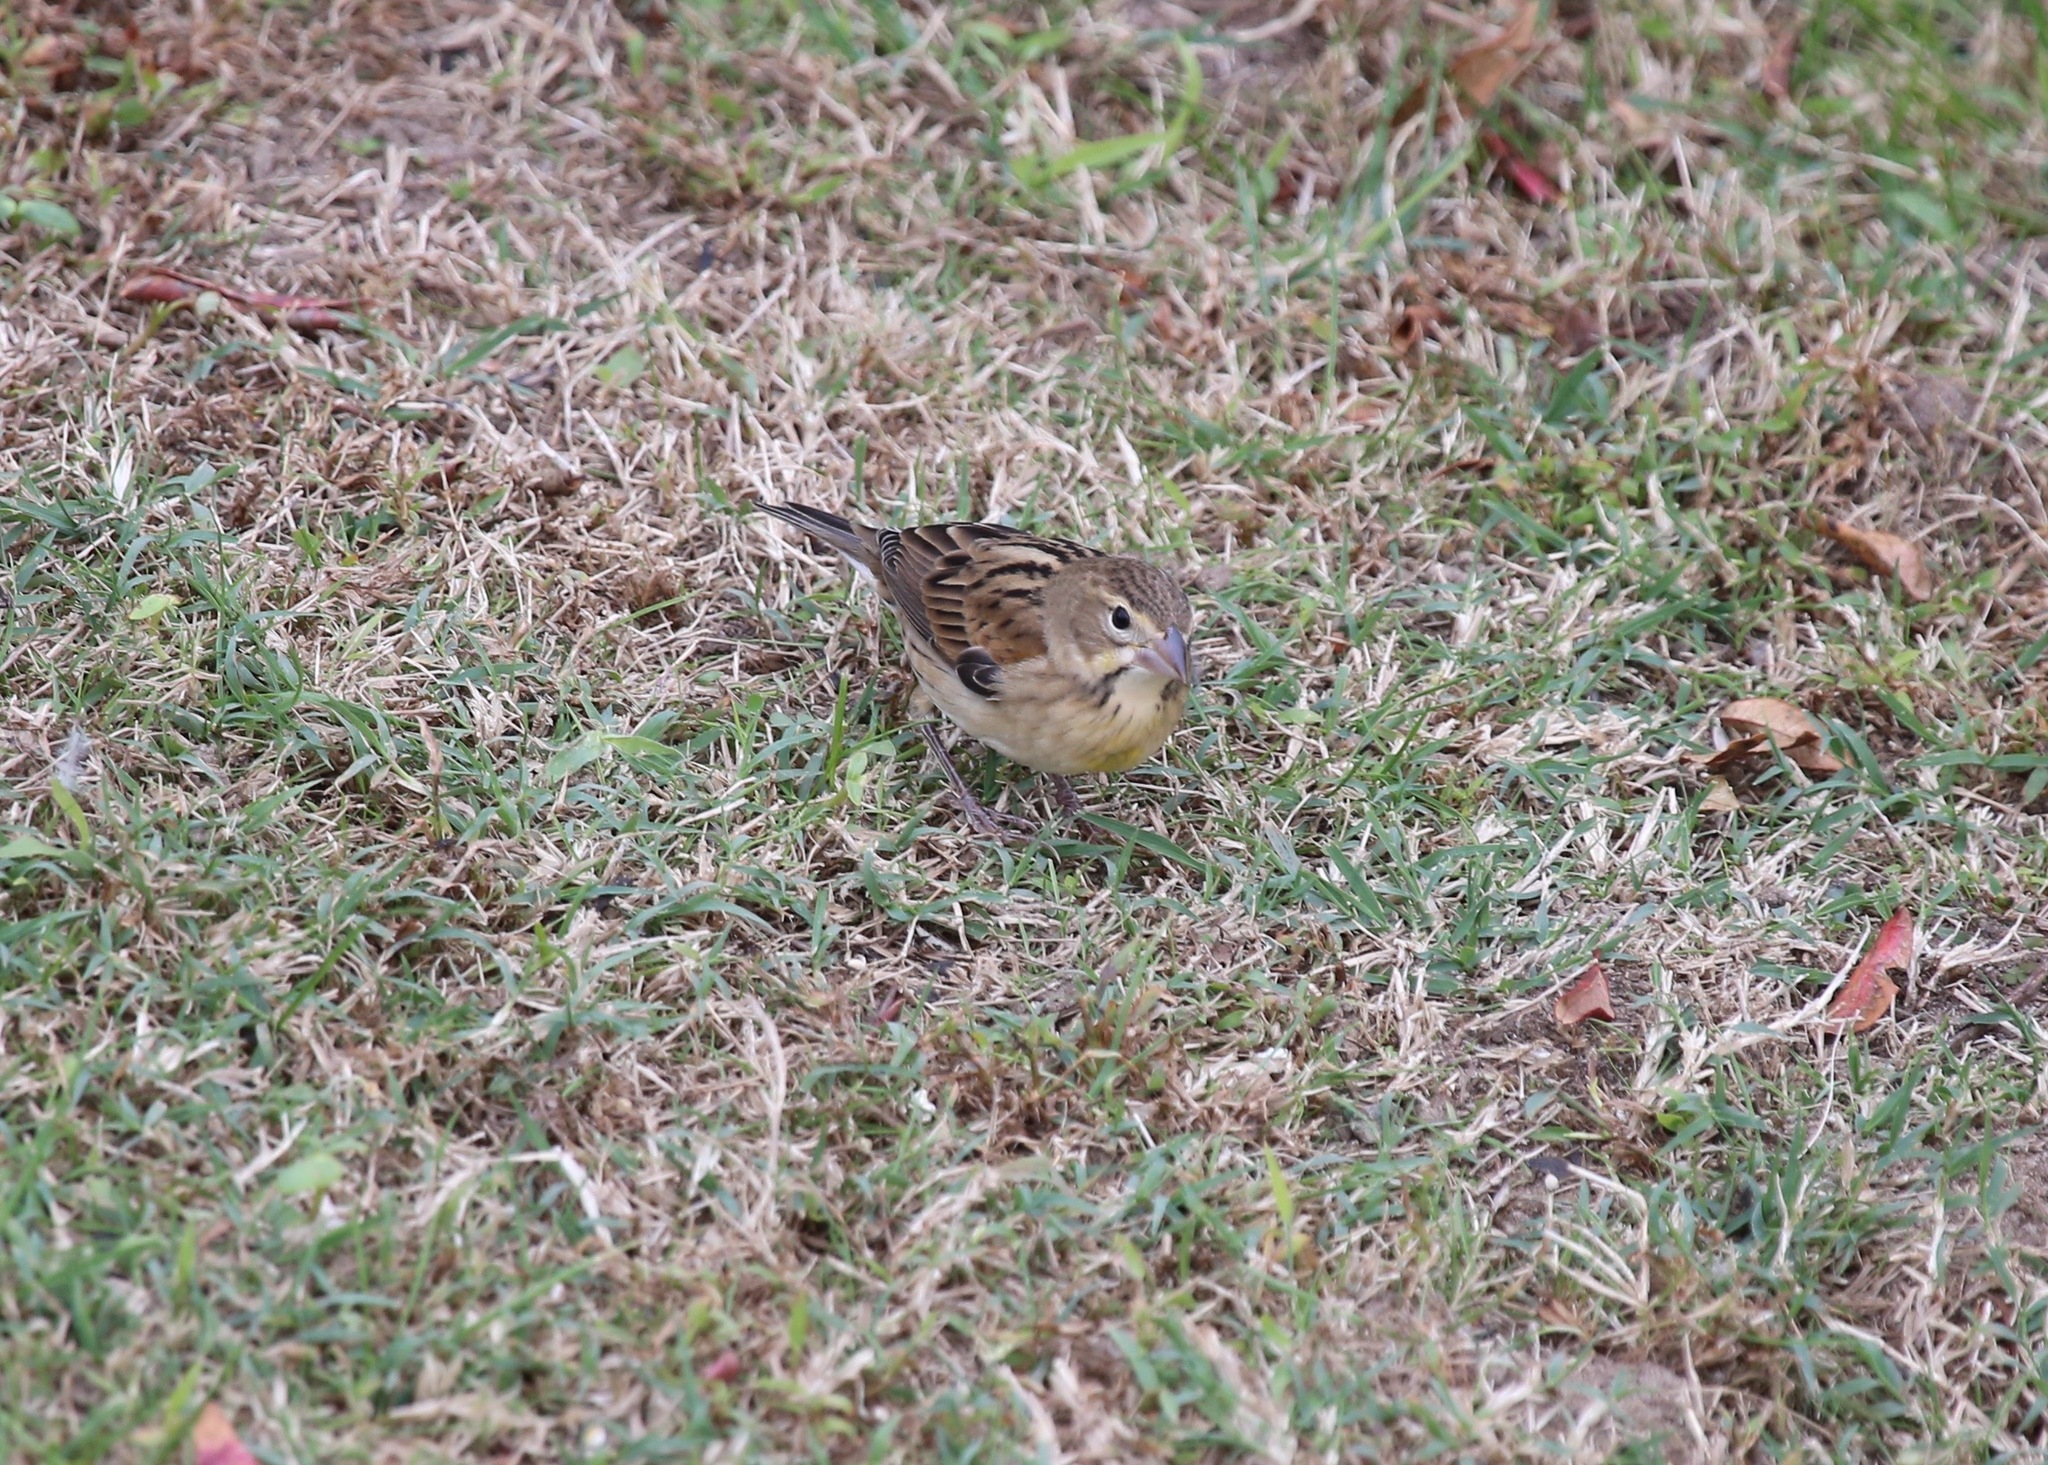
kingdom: Animalia
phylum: Chordata
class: Aves
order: Passeriformes
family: Cardinalidae
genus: Spiza
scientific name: Spiza americana
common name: Dickcissel
